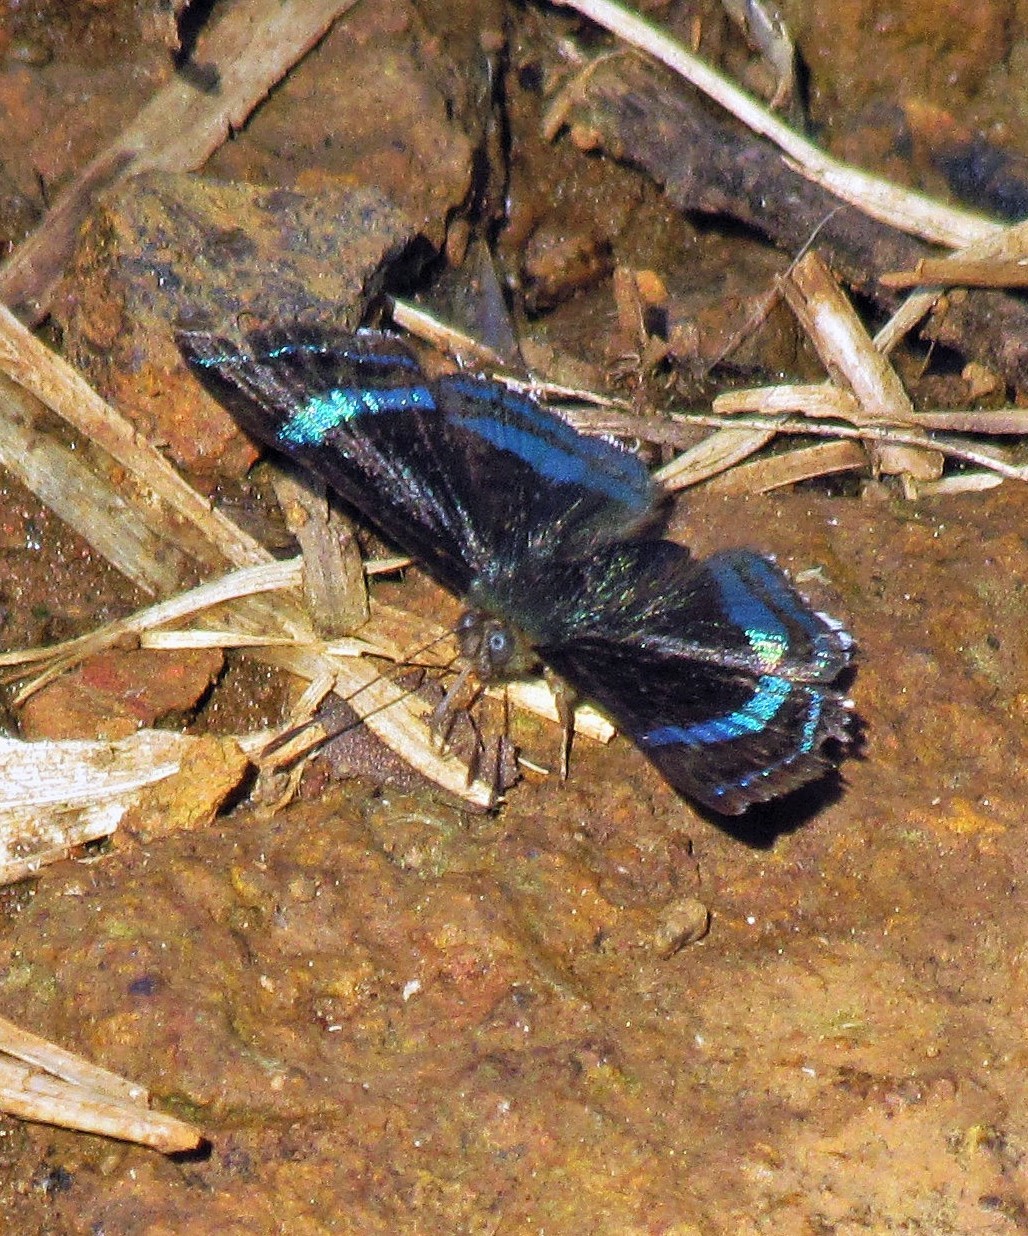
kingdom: Animalia
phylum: Arthropoda
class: Insecta
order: Lepidoptera
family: Riodinidae
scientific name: Riodinidae
